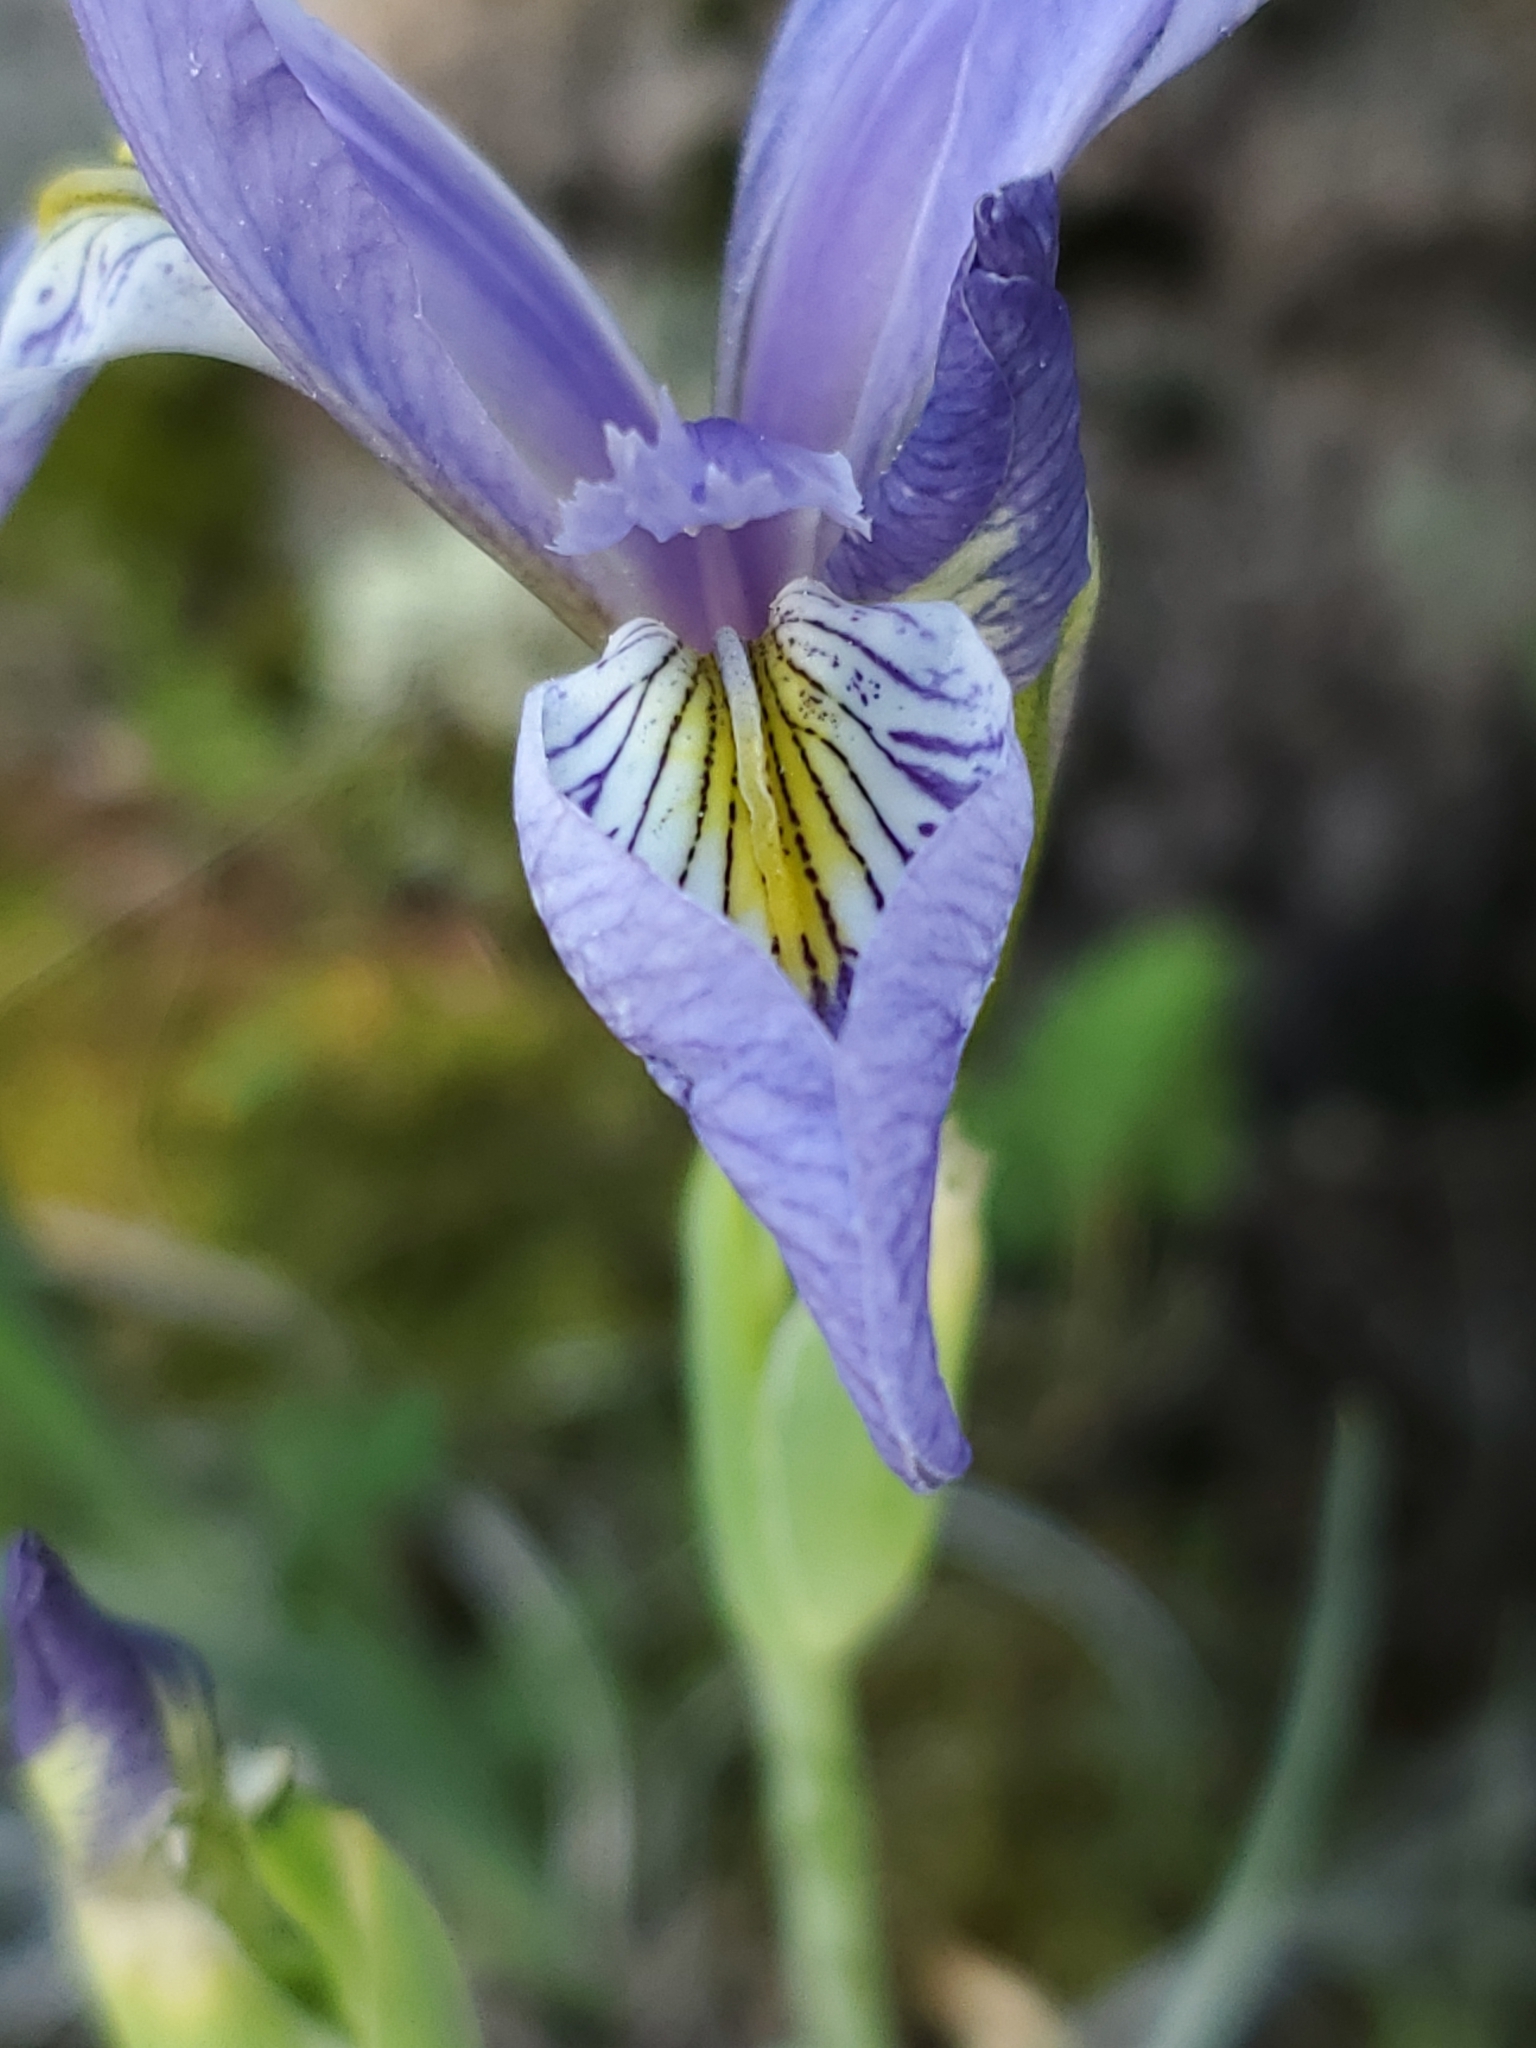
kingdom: Plantae
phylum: Tracheophyta
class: Liliopsida
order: Asparagales
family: Iridaceae
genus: Iris
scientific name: Iris missouriensis
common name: Rocky mountain iris
